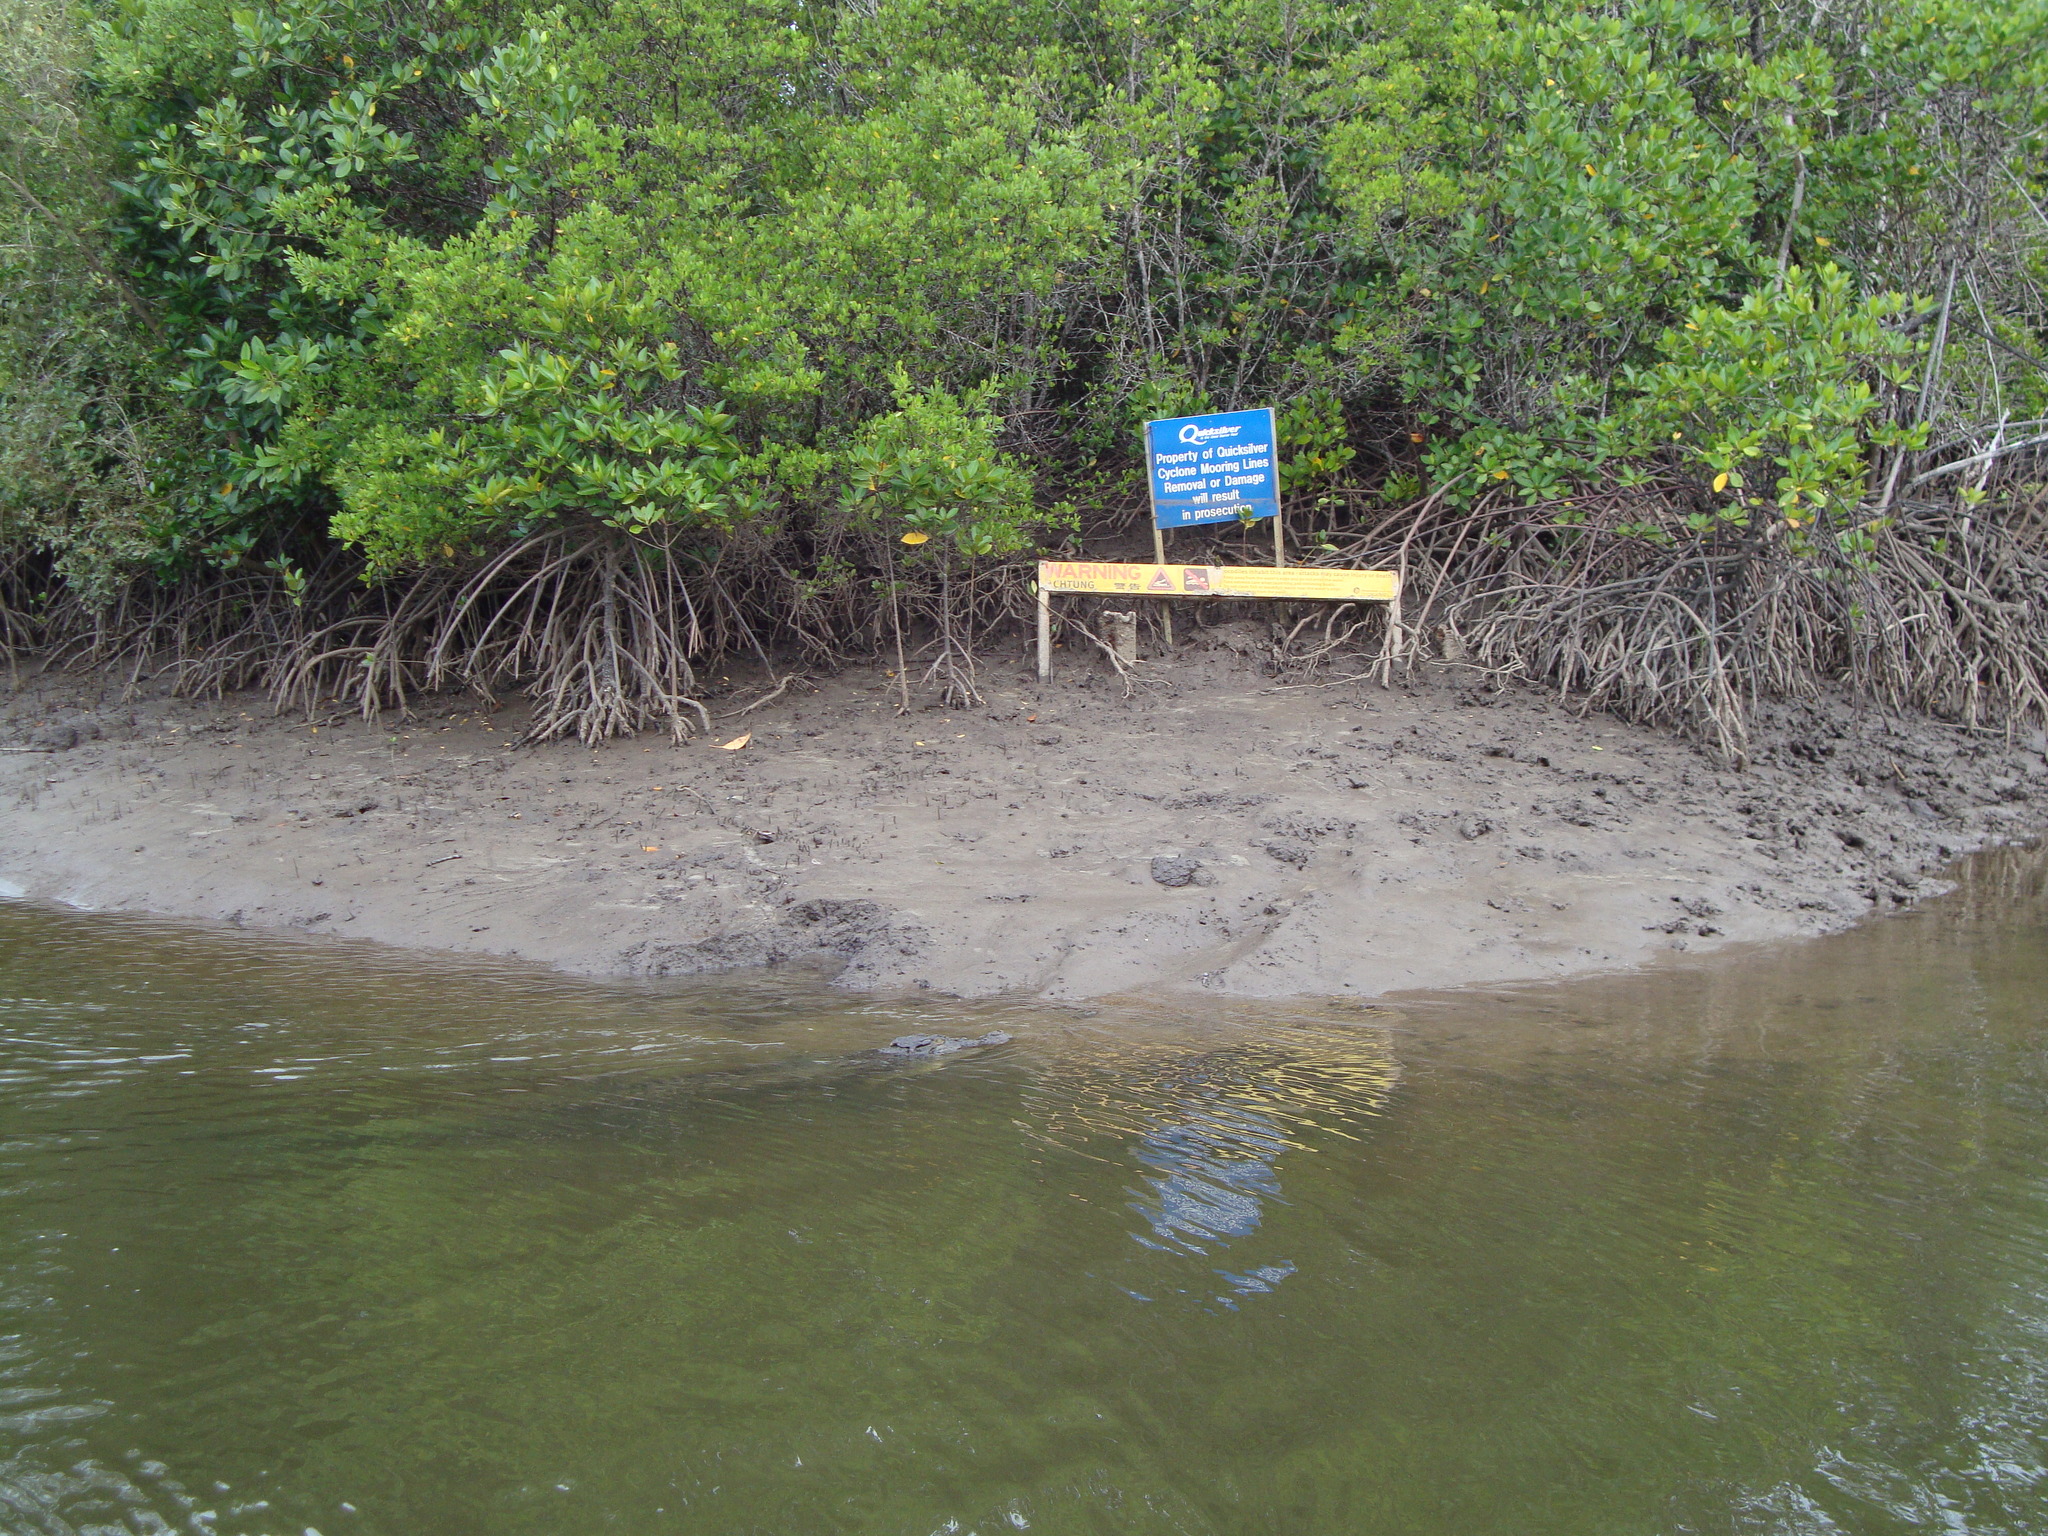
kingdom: Animalia
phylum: Chordata
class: Crocodylia
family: Crocodylidae
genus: Crocodylus
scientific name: Crocodylus porosus
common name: Saltwater crocodile
